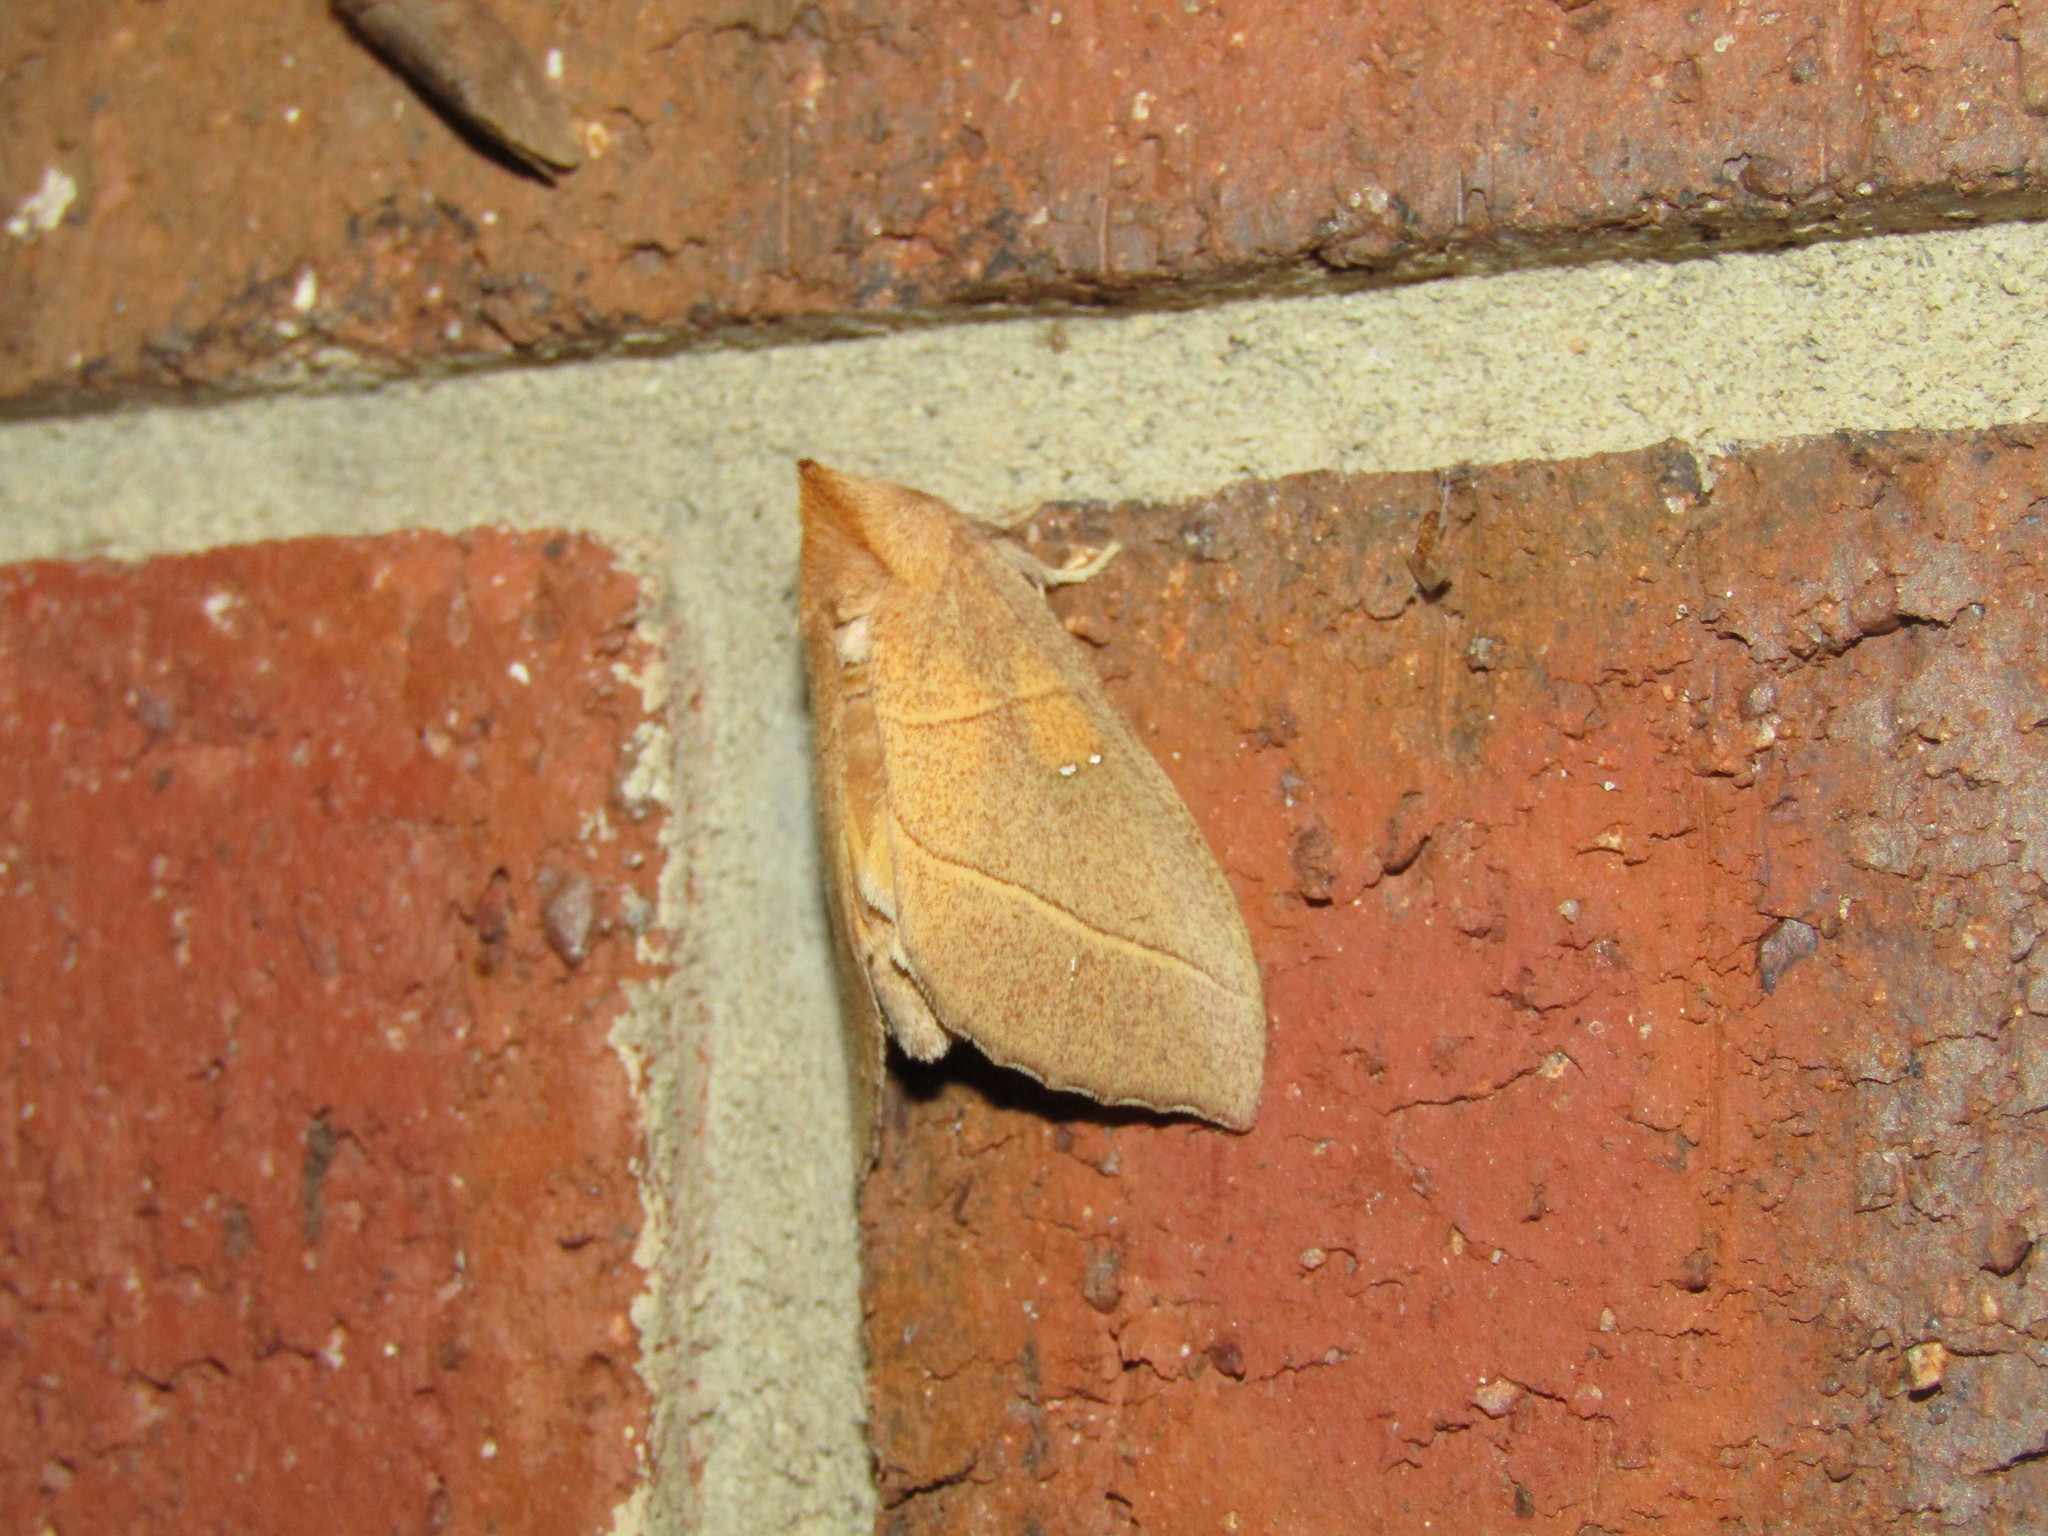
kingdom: Animalia
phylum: Arthropoda
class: Insecta
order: Lepidoptera
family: Notodontidae
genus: Nadata
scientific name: Nadata gibbosa
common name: White-dotted prominent
